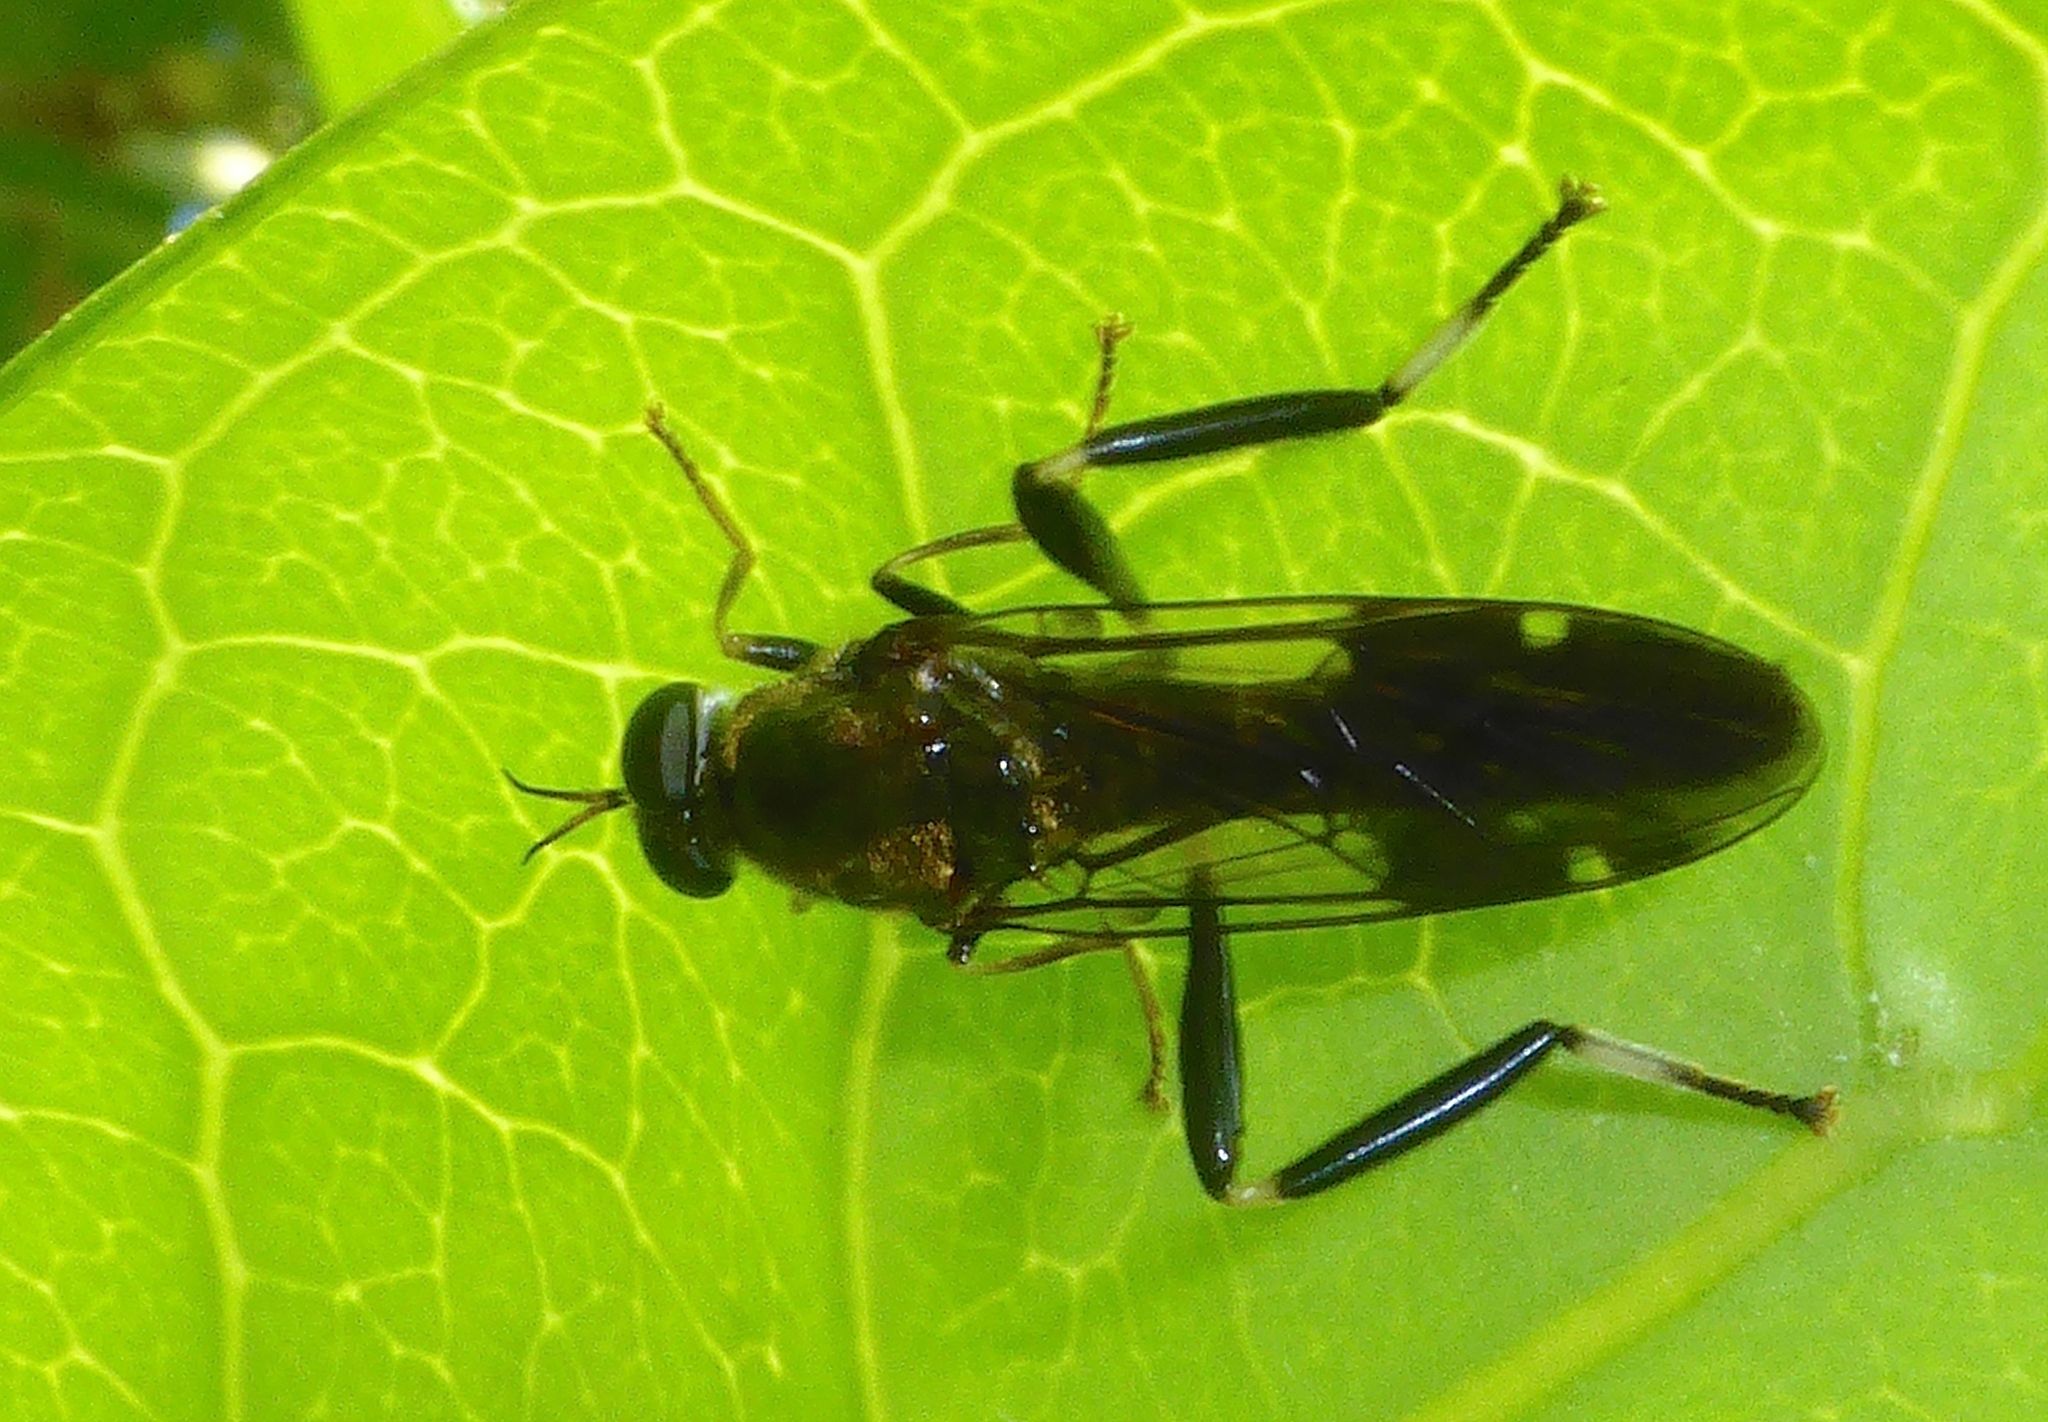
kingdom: Animalia
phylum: Arthropoda
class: Insecta
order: Diptera
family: Stratiomyidae
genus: Exaireta
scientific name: Exaireta spinigera
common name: Blue soldier fly
